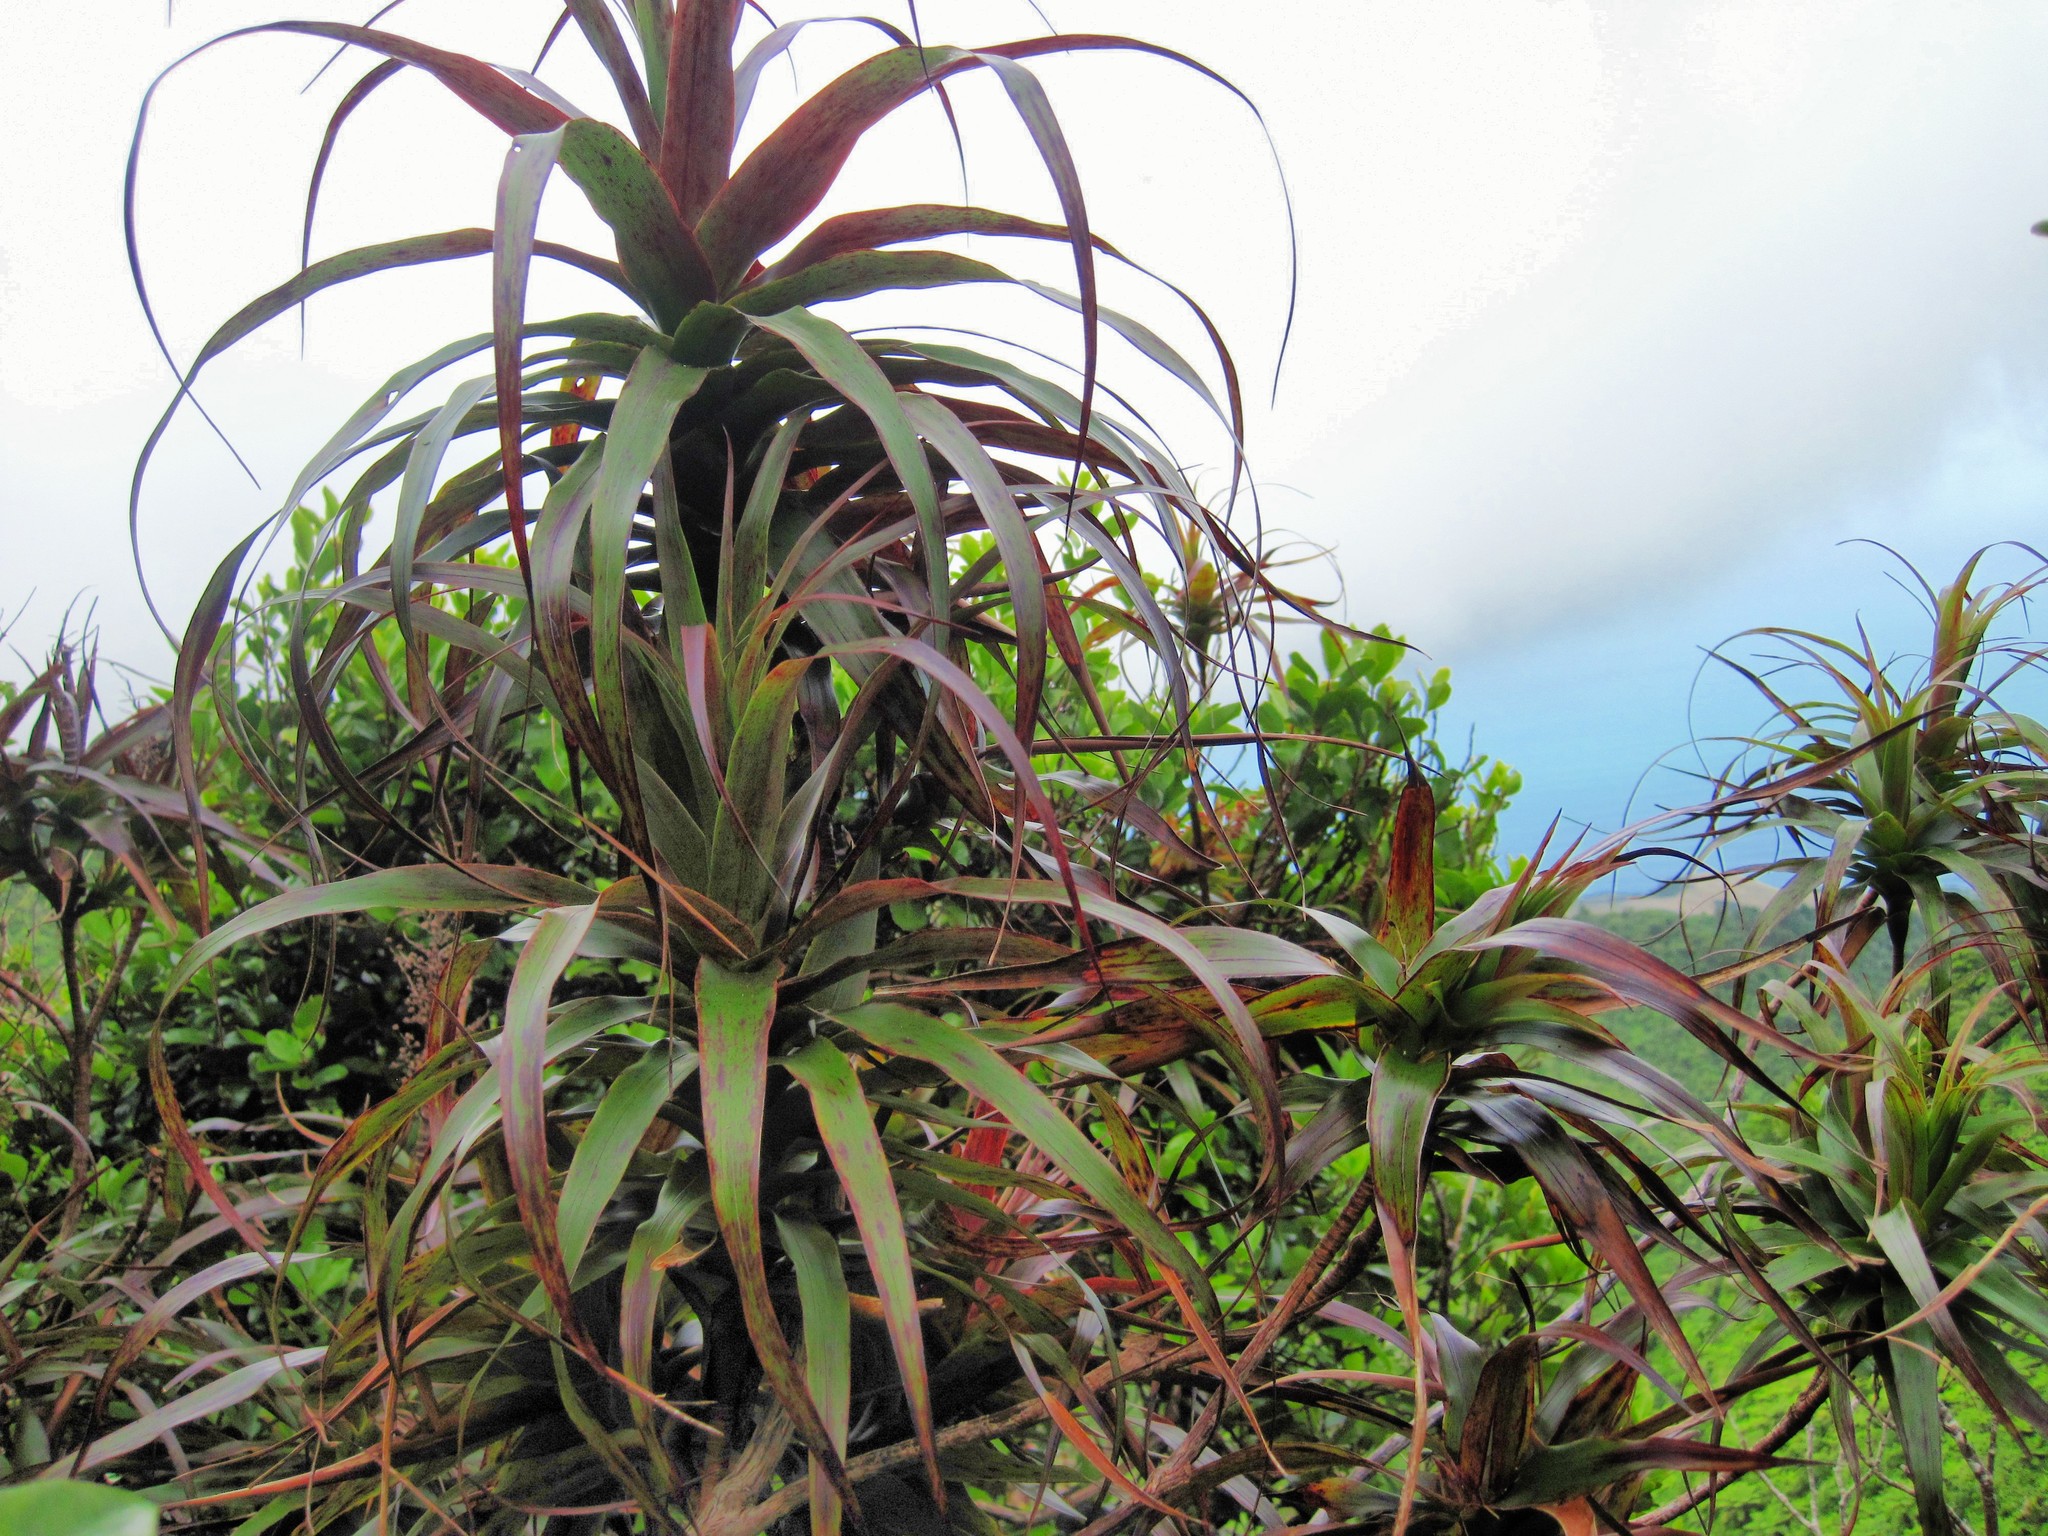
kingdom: Plantae
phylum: Tracheophyta
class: Magnoliopsida
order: Ericales
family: Ericaceae
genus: Dracophyllum
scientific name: Dracophyllum latifolium
